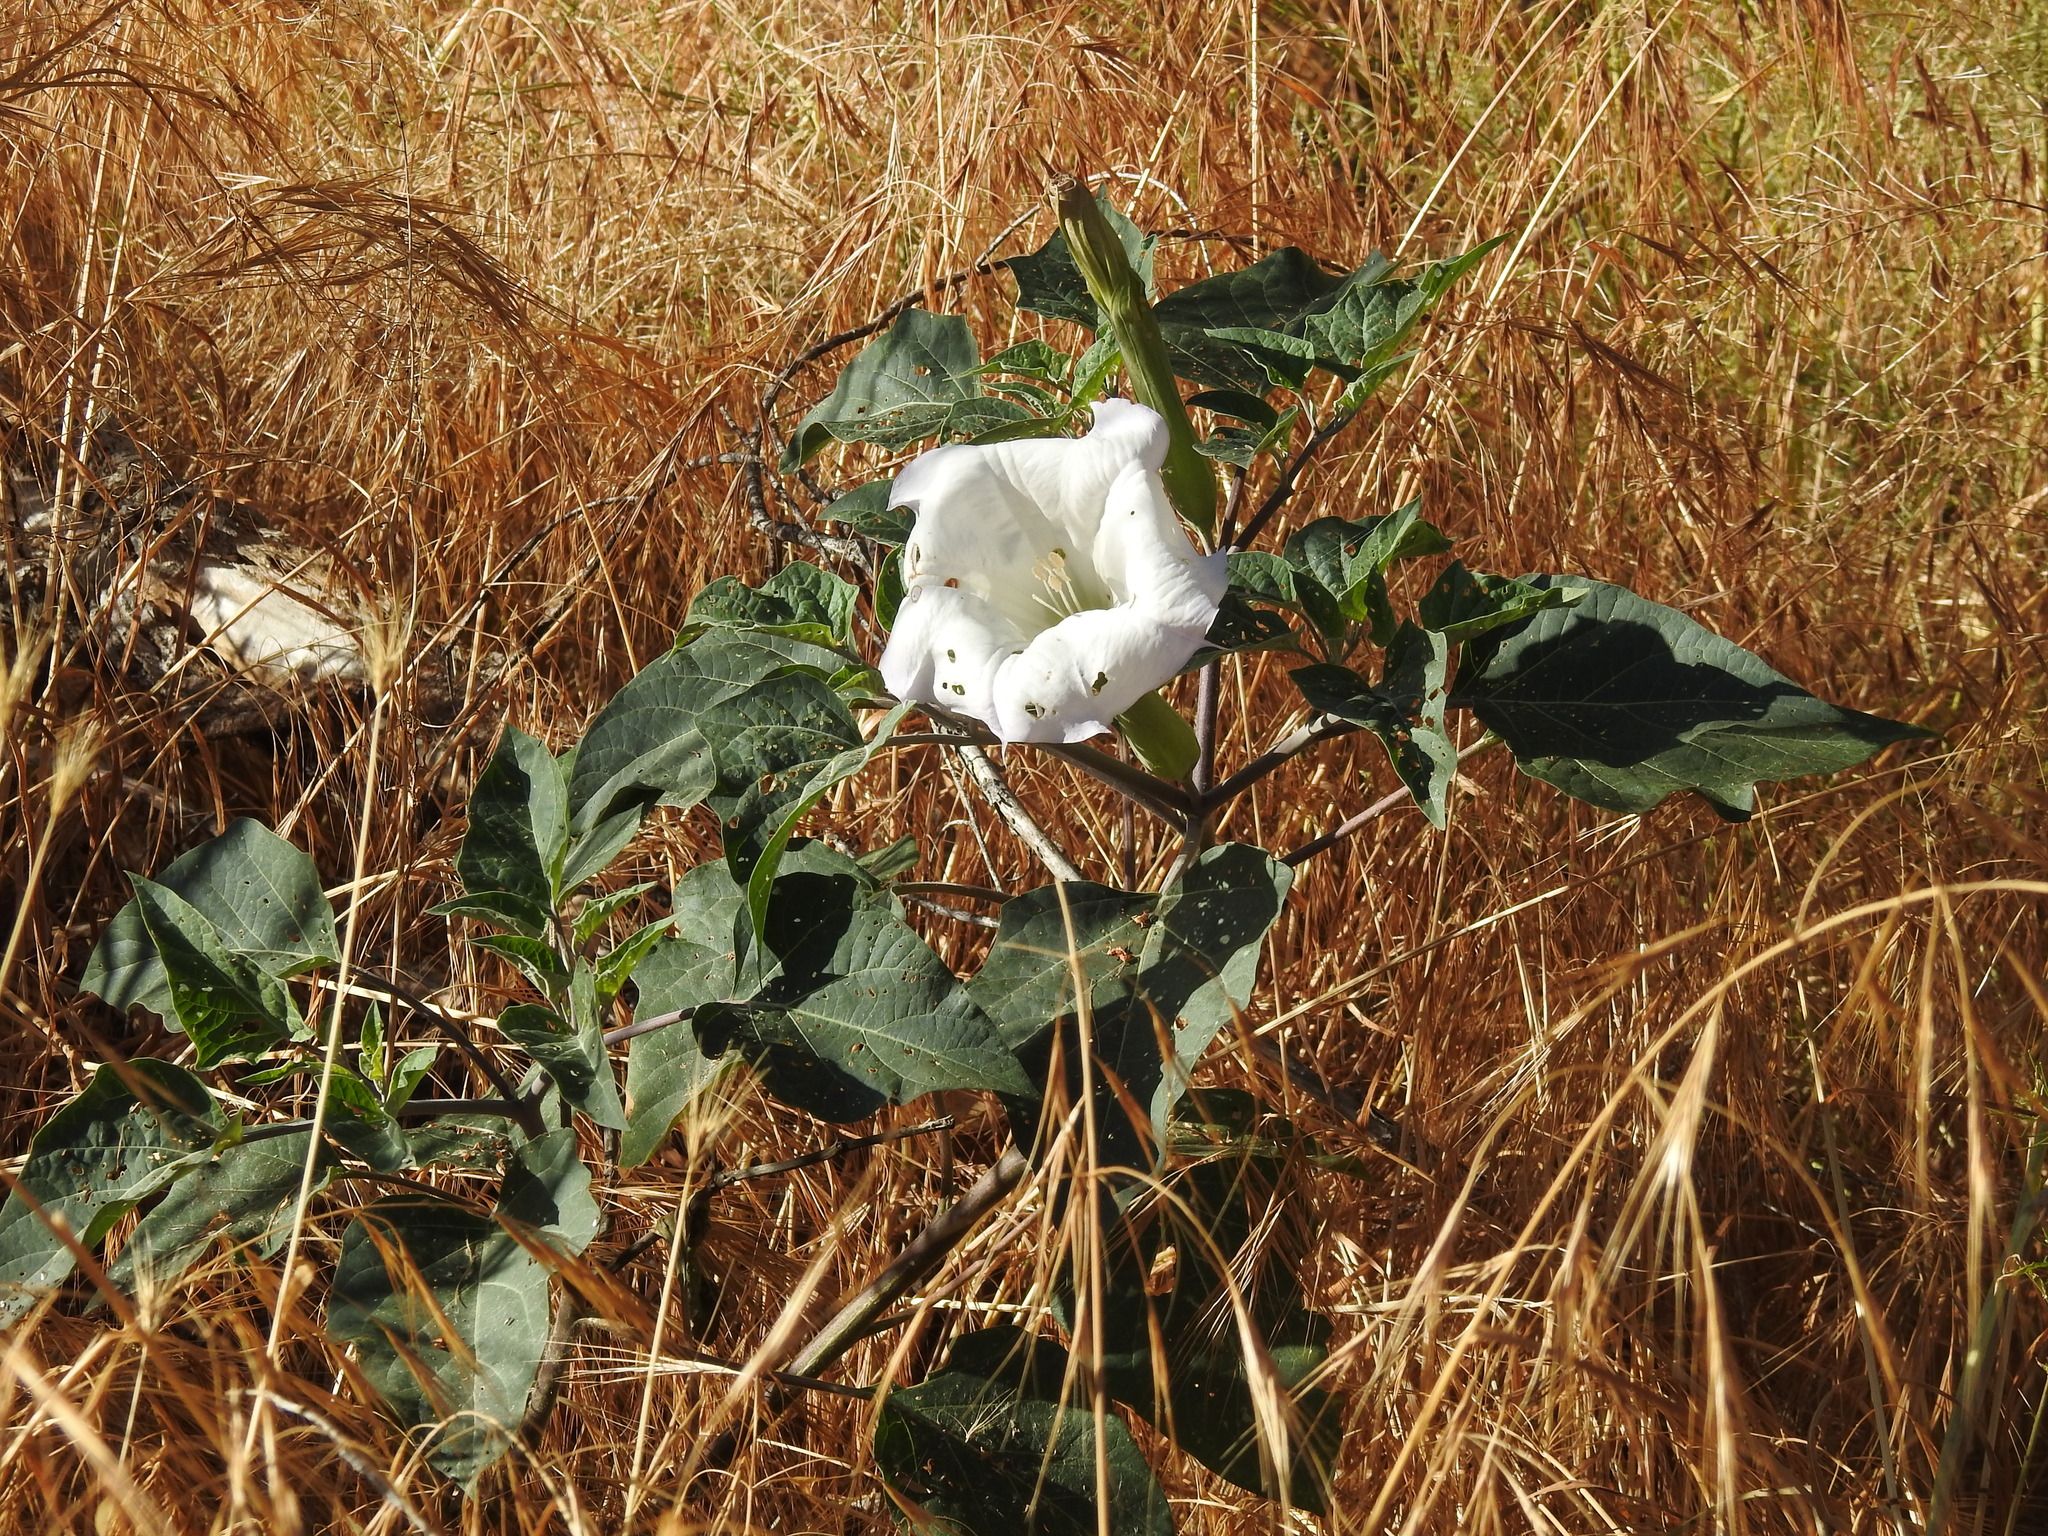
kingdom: Plantae
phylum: Tracheophyta
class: Magnoliopsida
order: Solanales
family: Solanaceae
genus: Datura
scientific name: Datura wrightii
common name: Sacred thorn-apple
